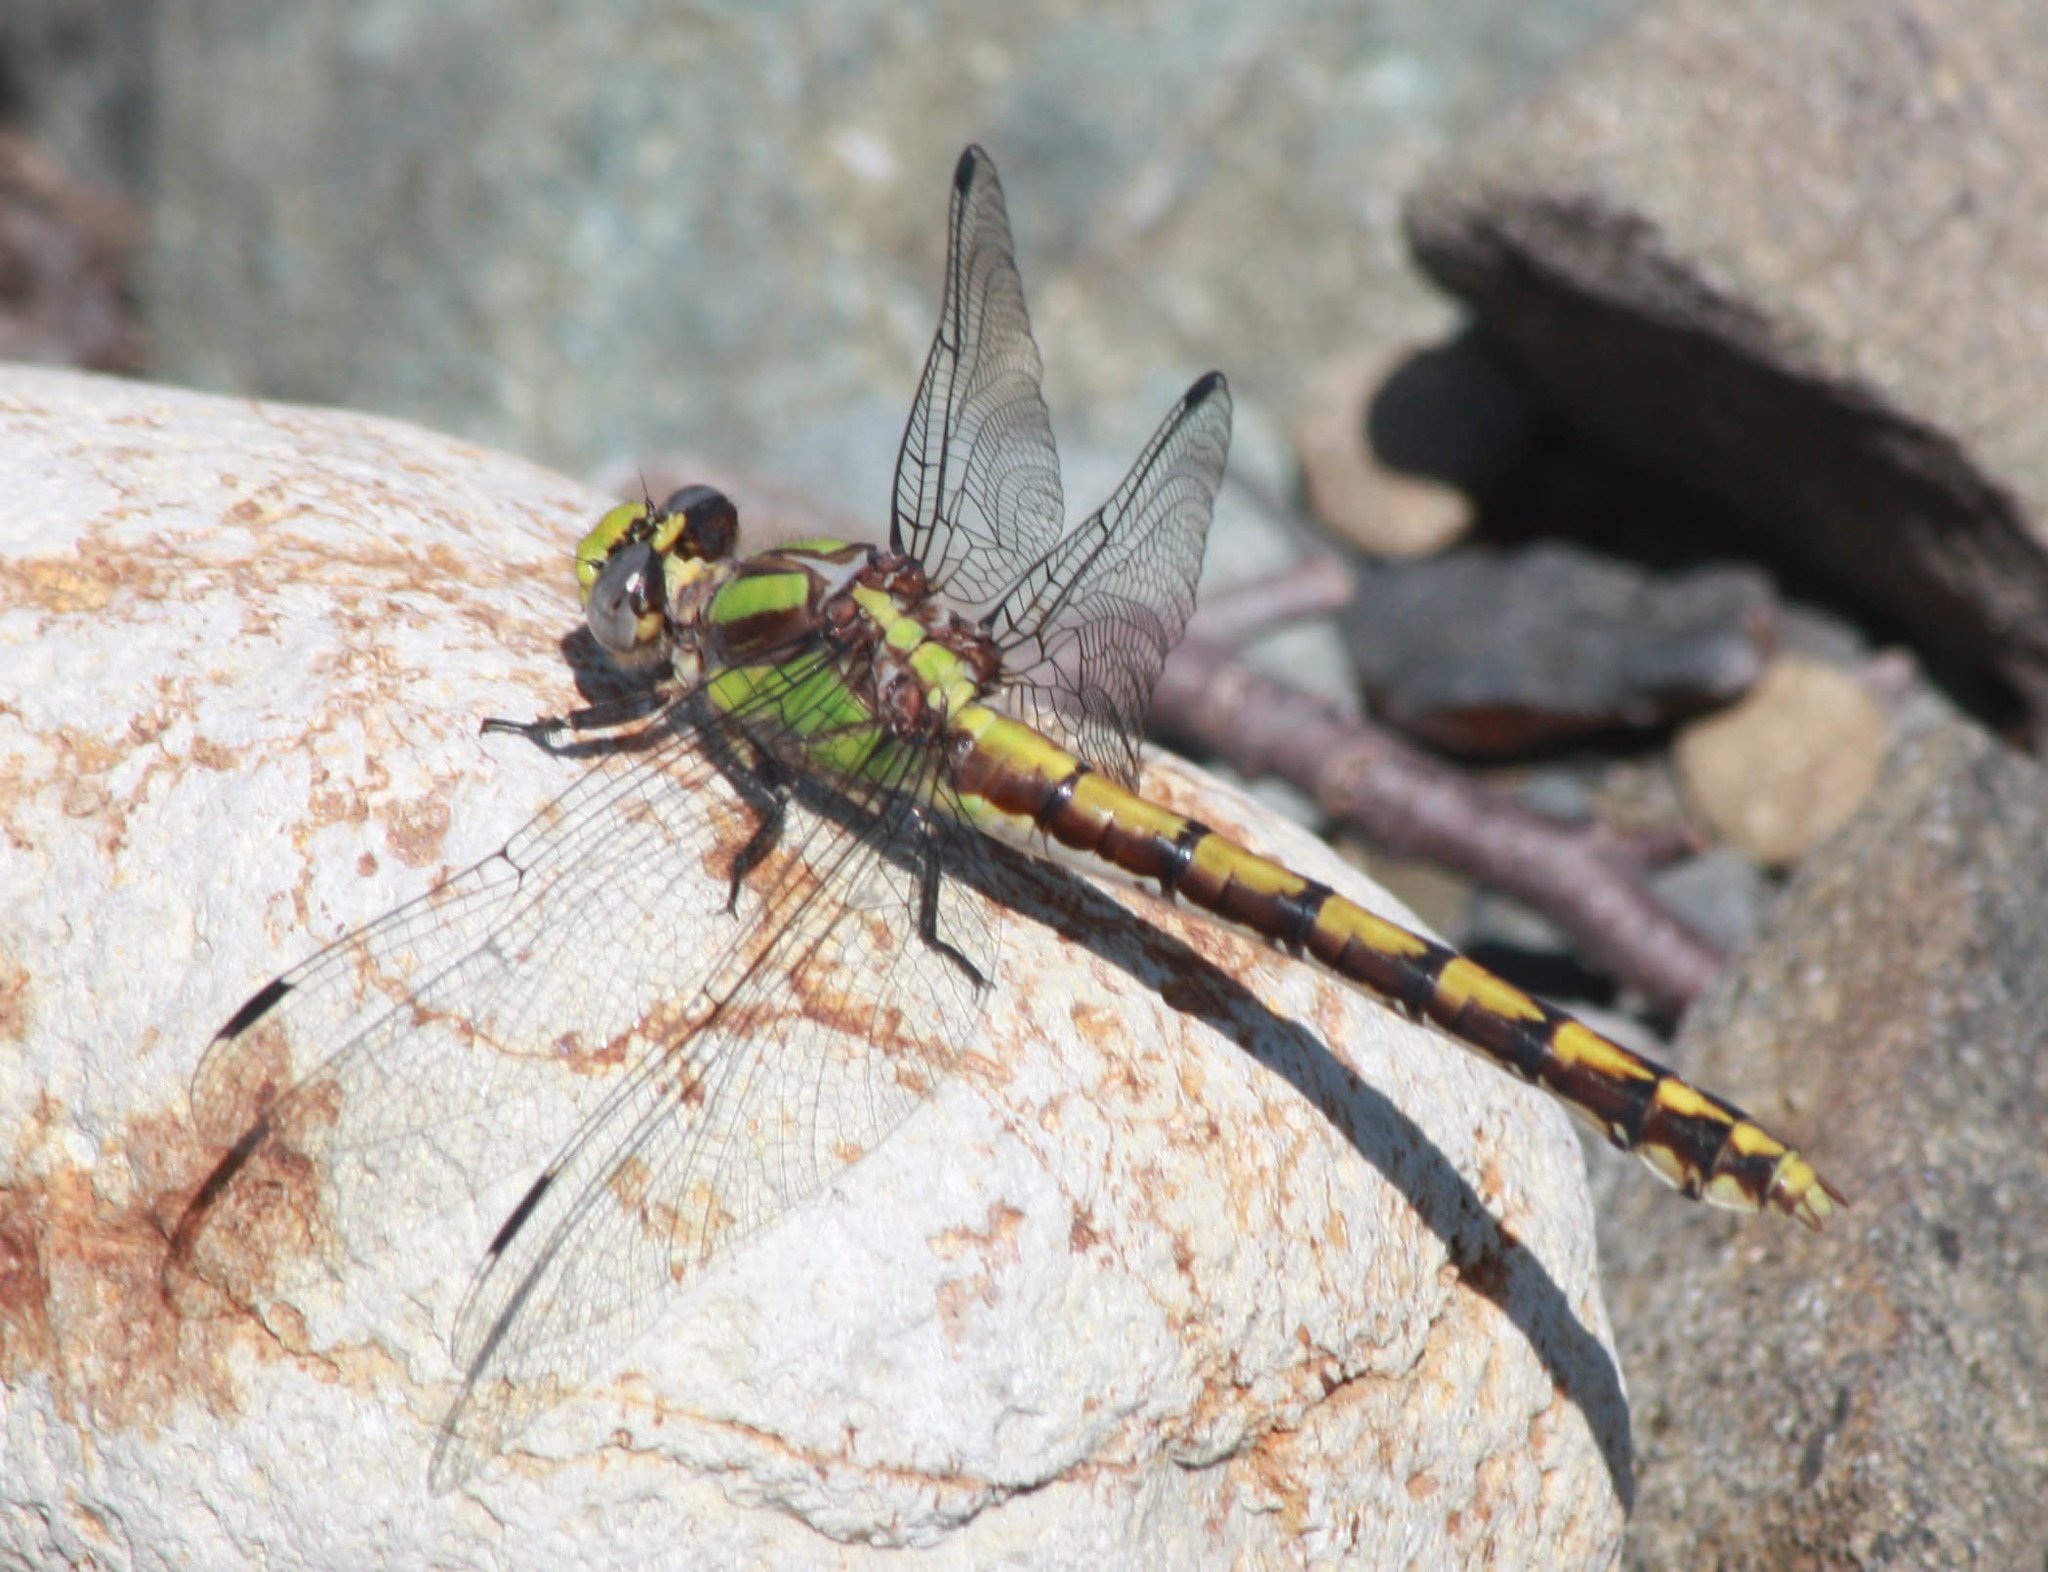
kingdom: Animalia
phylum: Arthropoda
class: Insecta
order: Odonata
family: Gomphidae
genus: Ophiogomphus
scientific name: Ophiogomphus bison
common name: Bison snaketail
